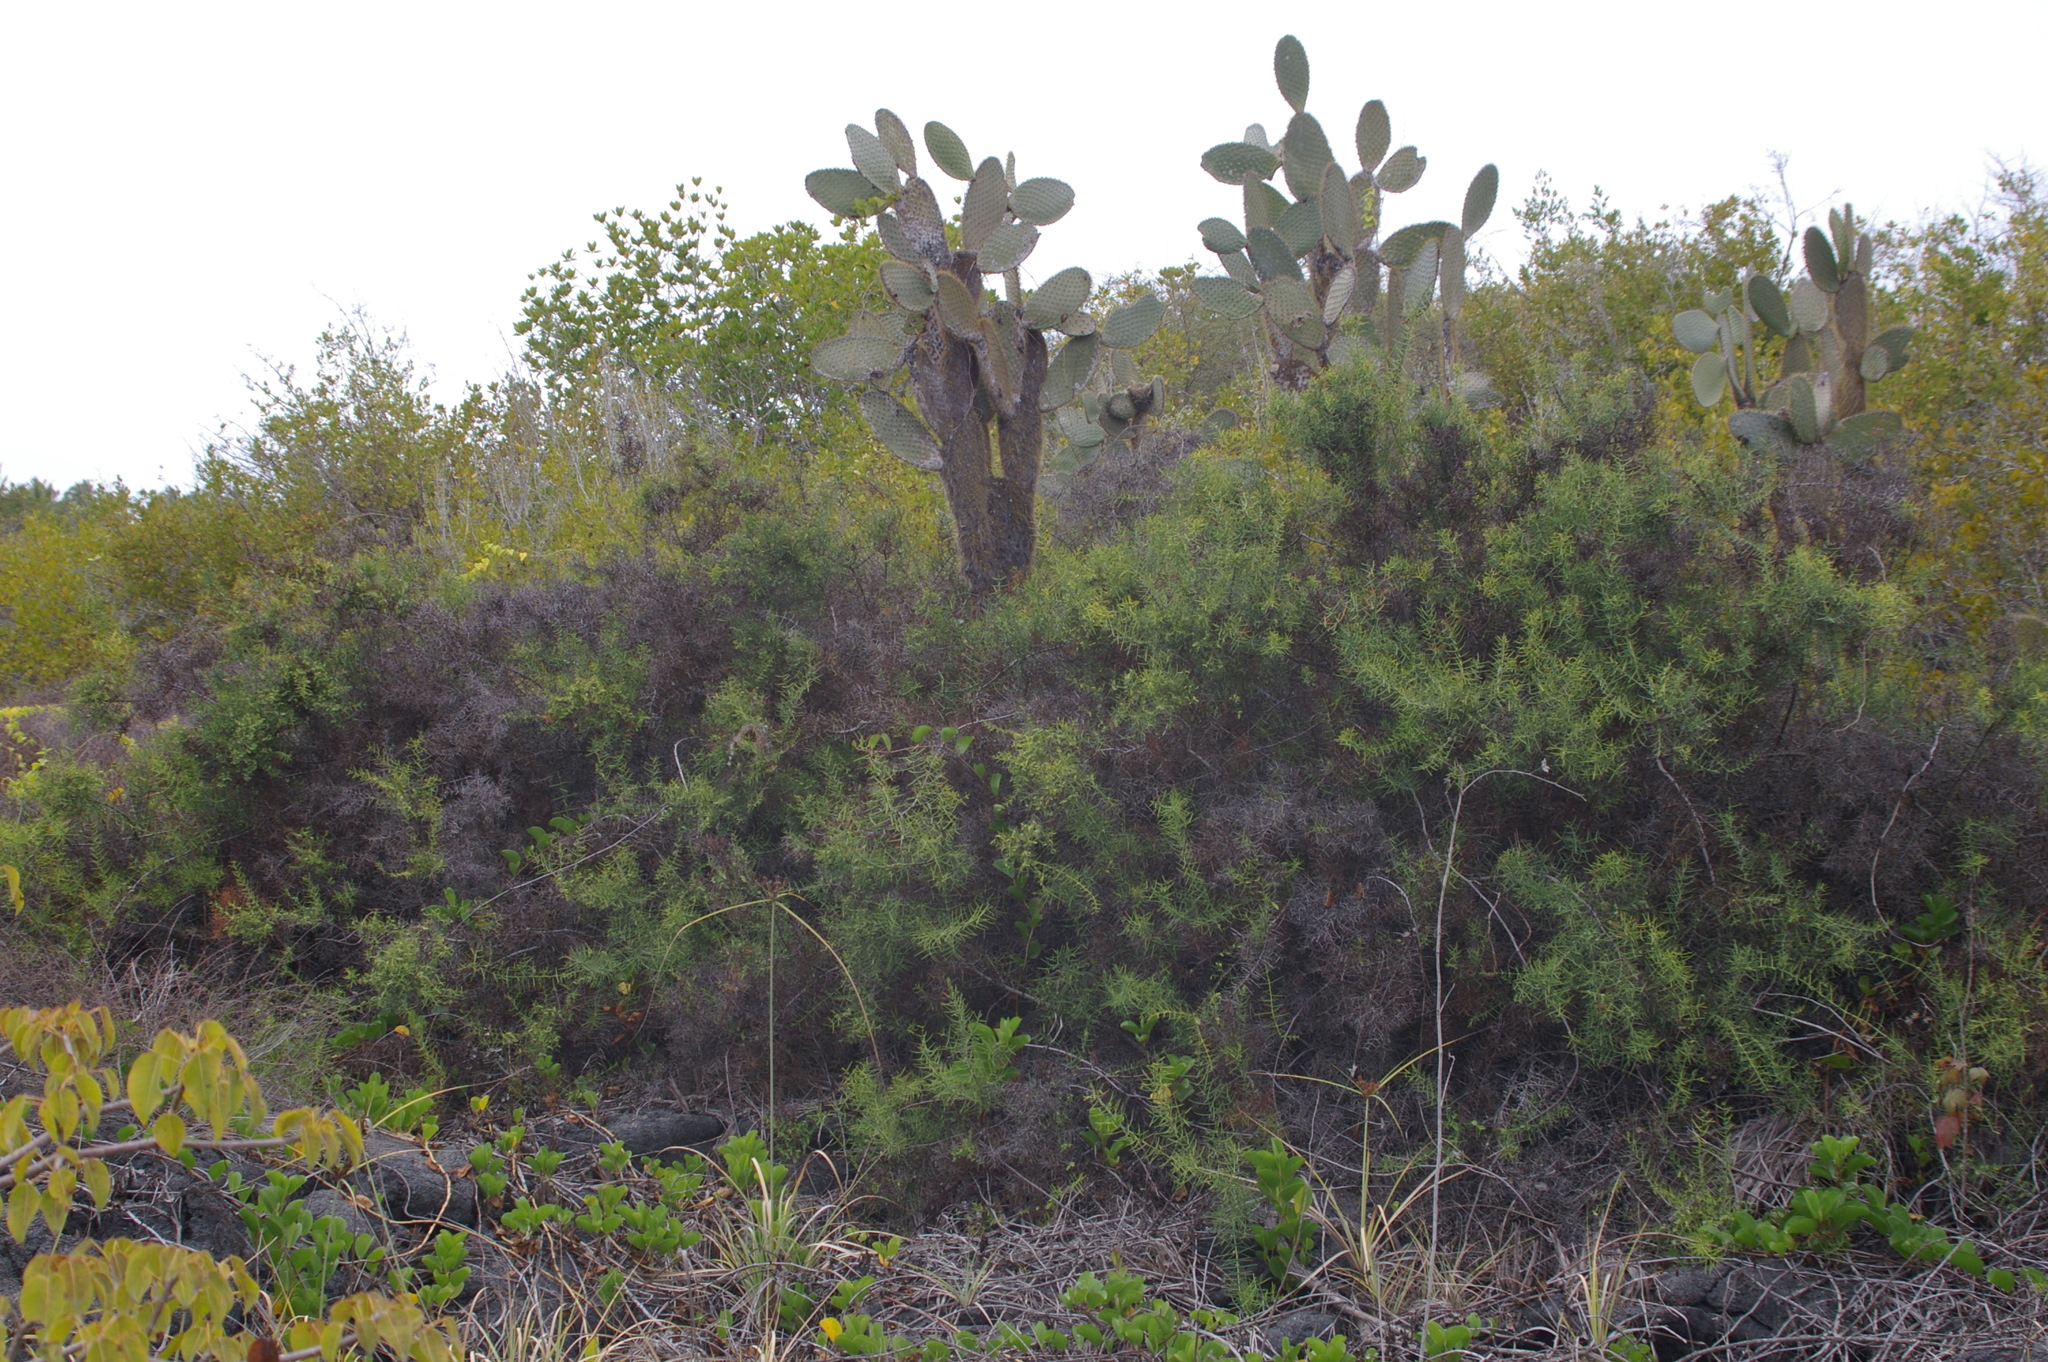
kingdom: Plantae
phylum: Tracheophyta
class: Magnoliopsida
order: Caryophyllales
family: Cactaceae
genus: Opuntia
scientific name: Opuntia galapageia
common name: Galápagos prickly pear
